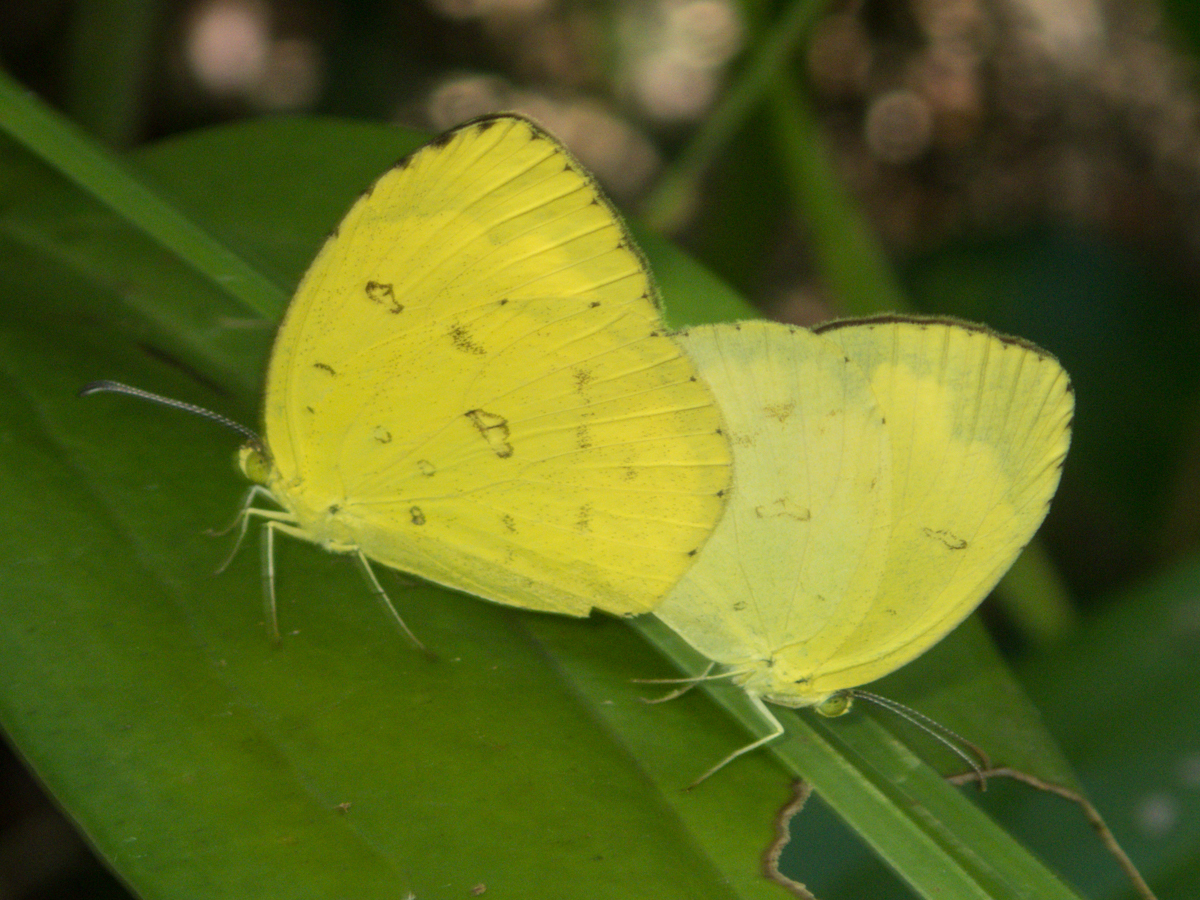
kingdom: Animalia
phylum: Arthropoda
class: Insecta
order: Lepidoptera
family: Pieridae
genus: Eurema
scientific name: Eurema hecabe
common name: Pale grass yellow
